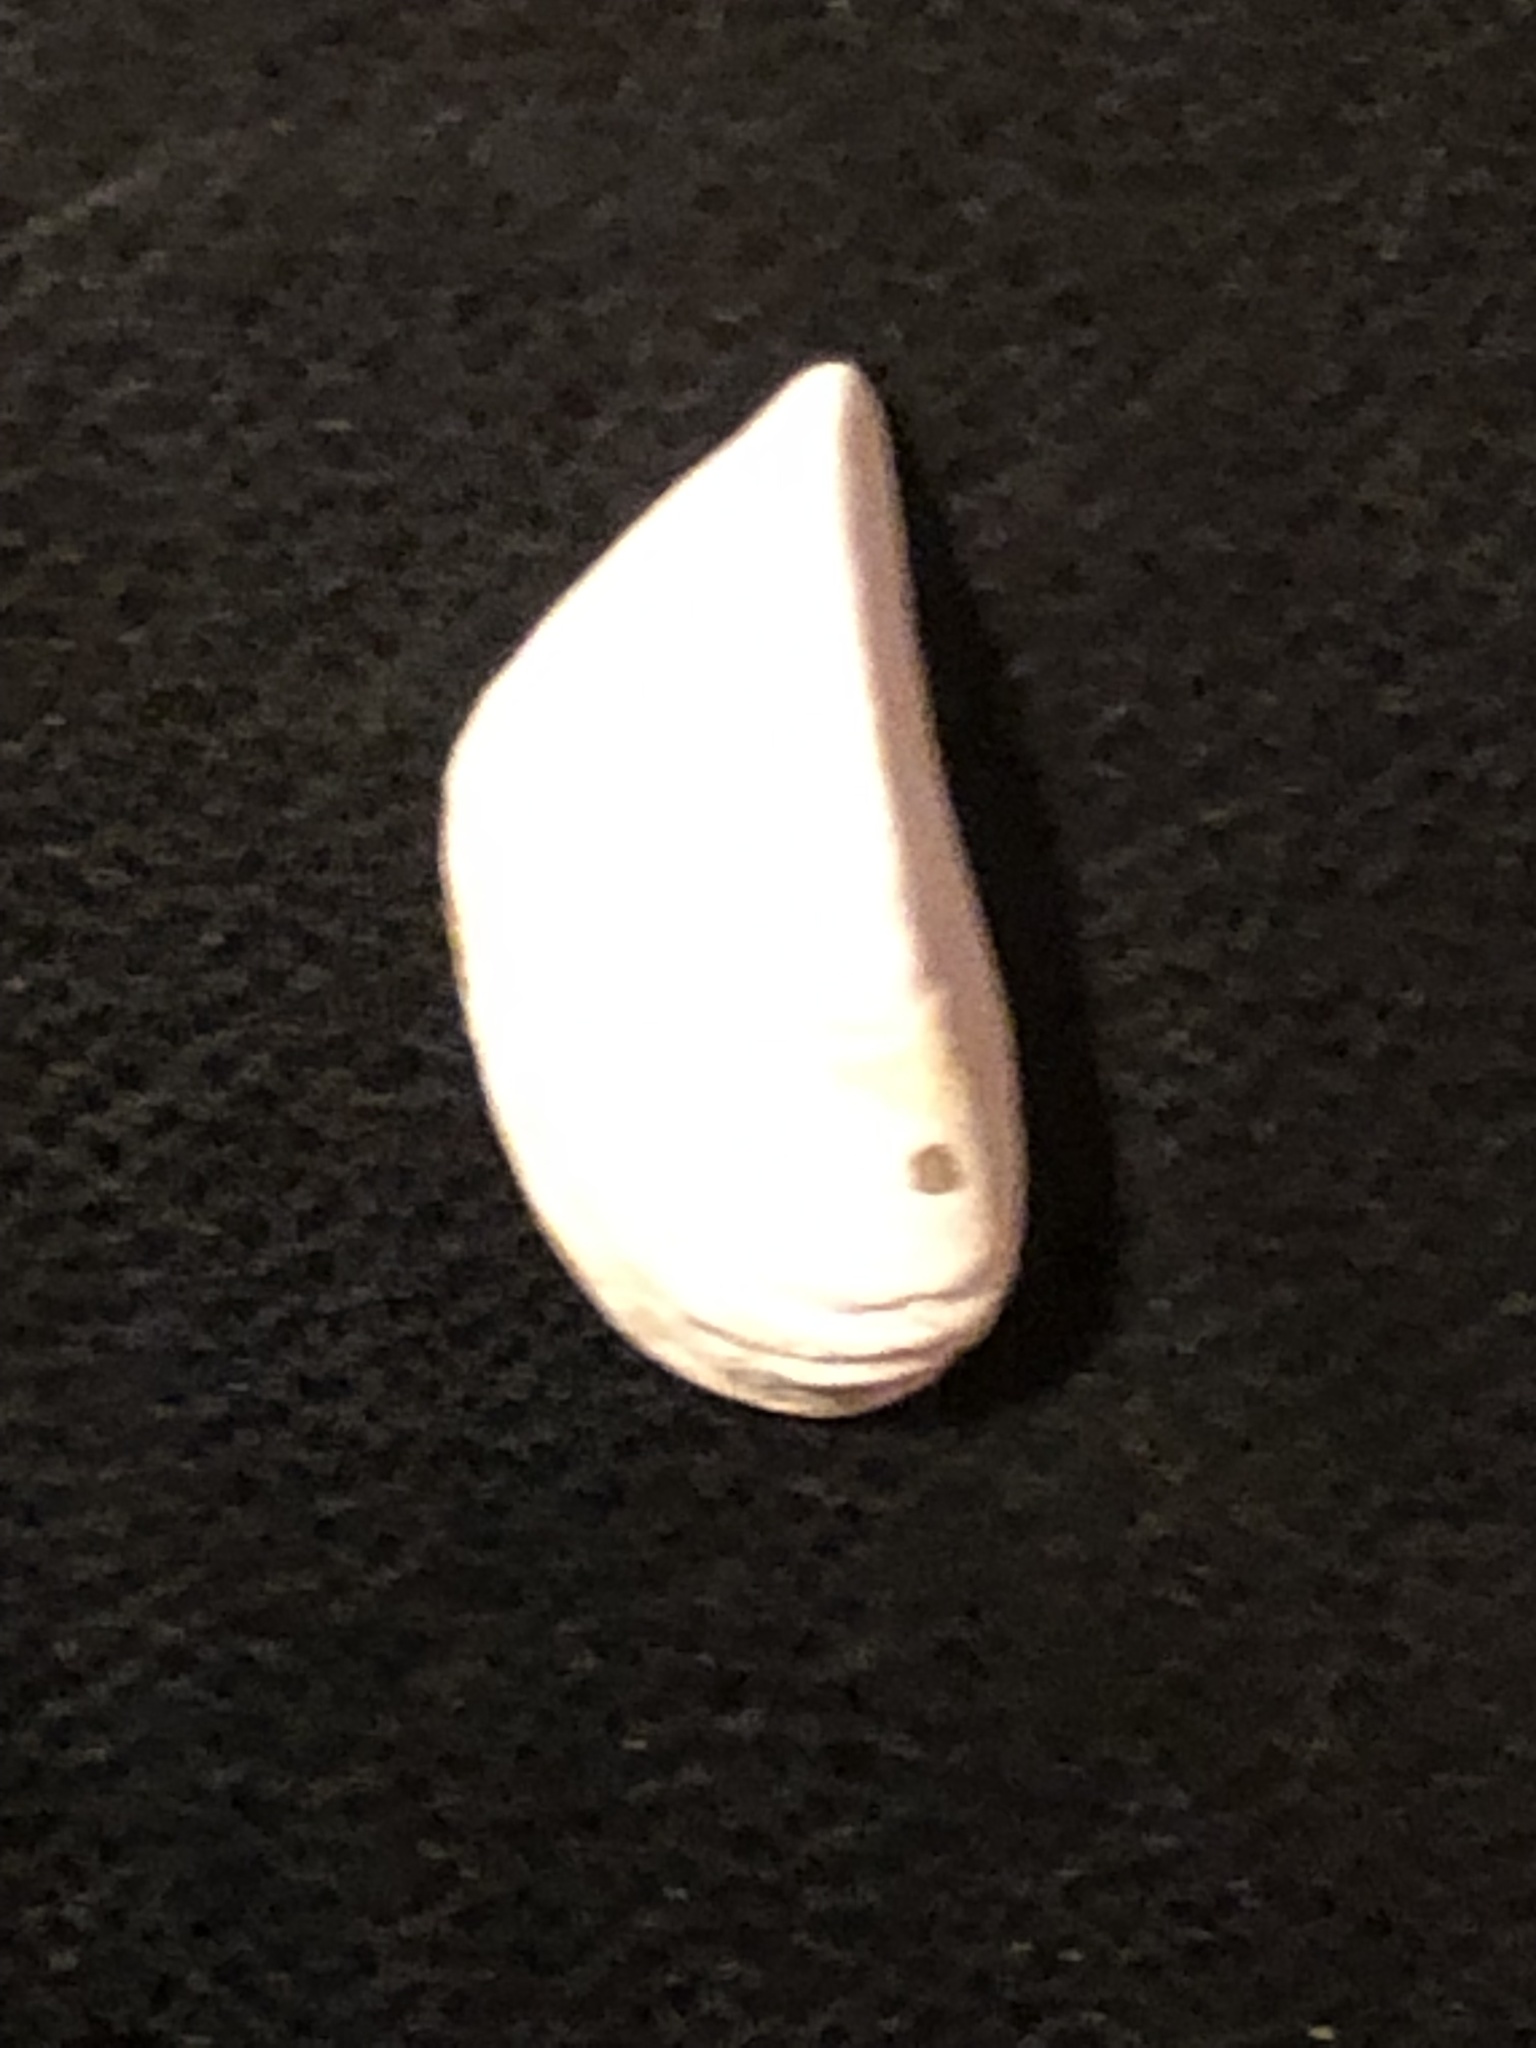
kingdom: Animalia
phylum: Mollusca
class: Bivalvia
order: Myida
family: Dreissenidae
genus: Dreissena
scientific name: Dreissena polymorpha
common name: Zebra mussel
